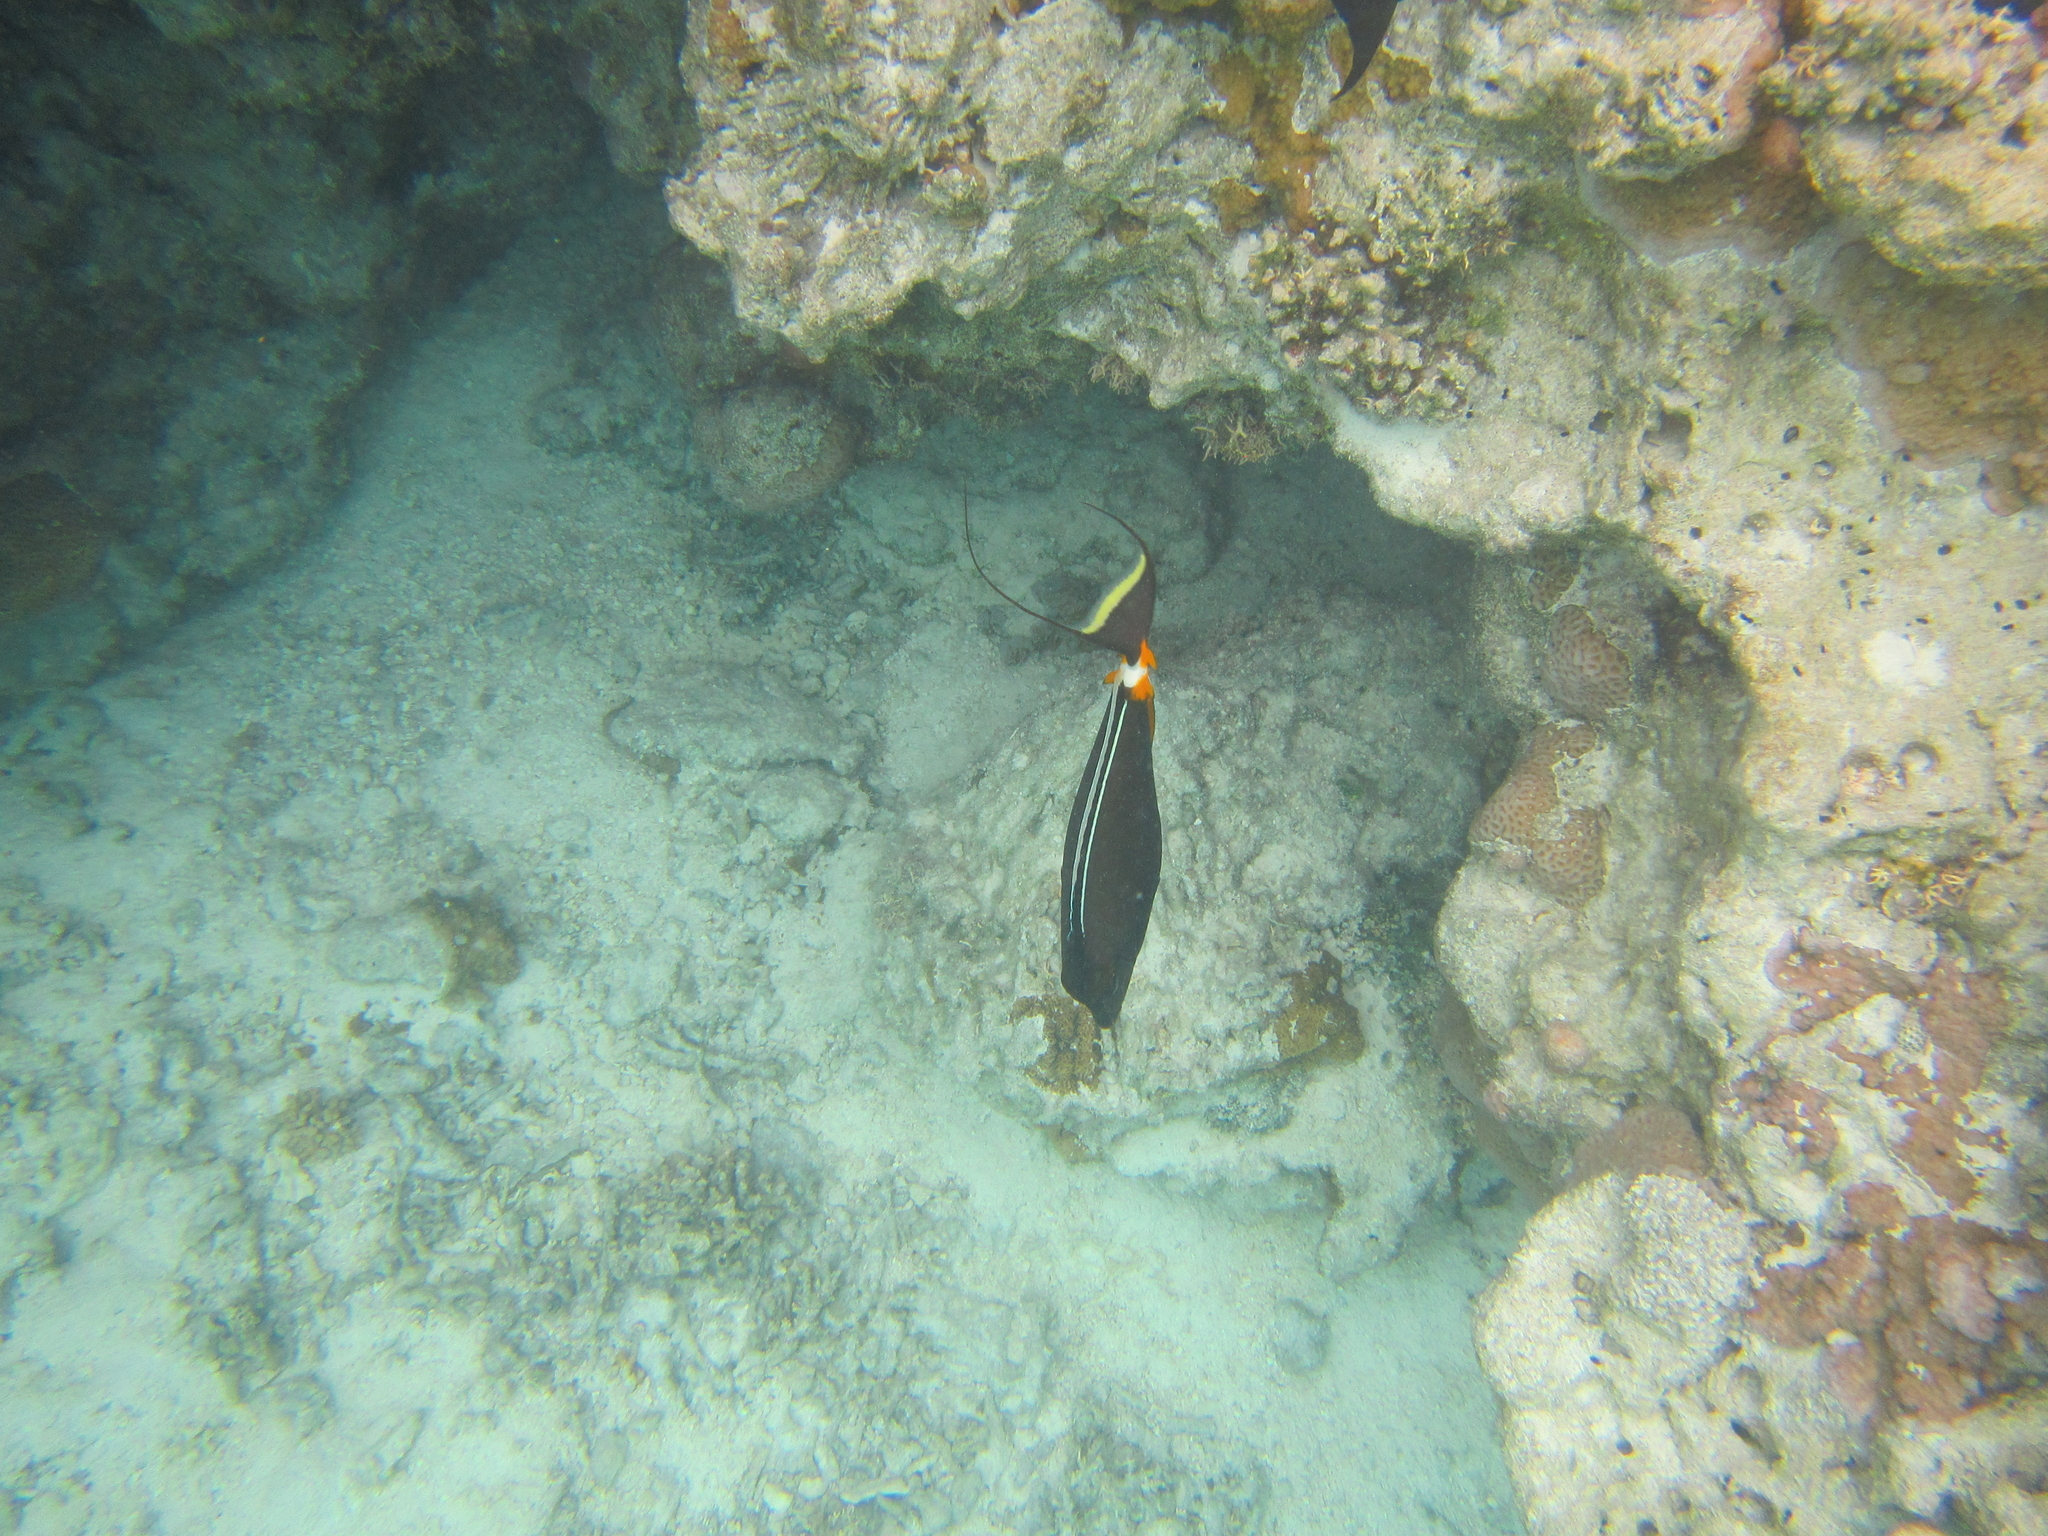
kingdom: Animalia
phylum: Chordata
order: Perciformes
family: Acanthuridae
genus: Naso
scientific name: Naso lituratus
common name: Orangespine unicornfish
